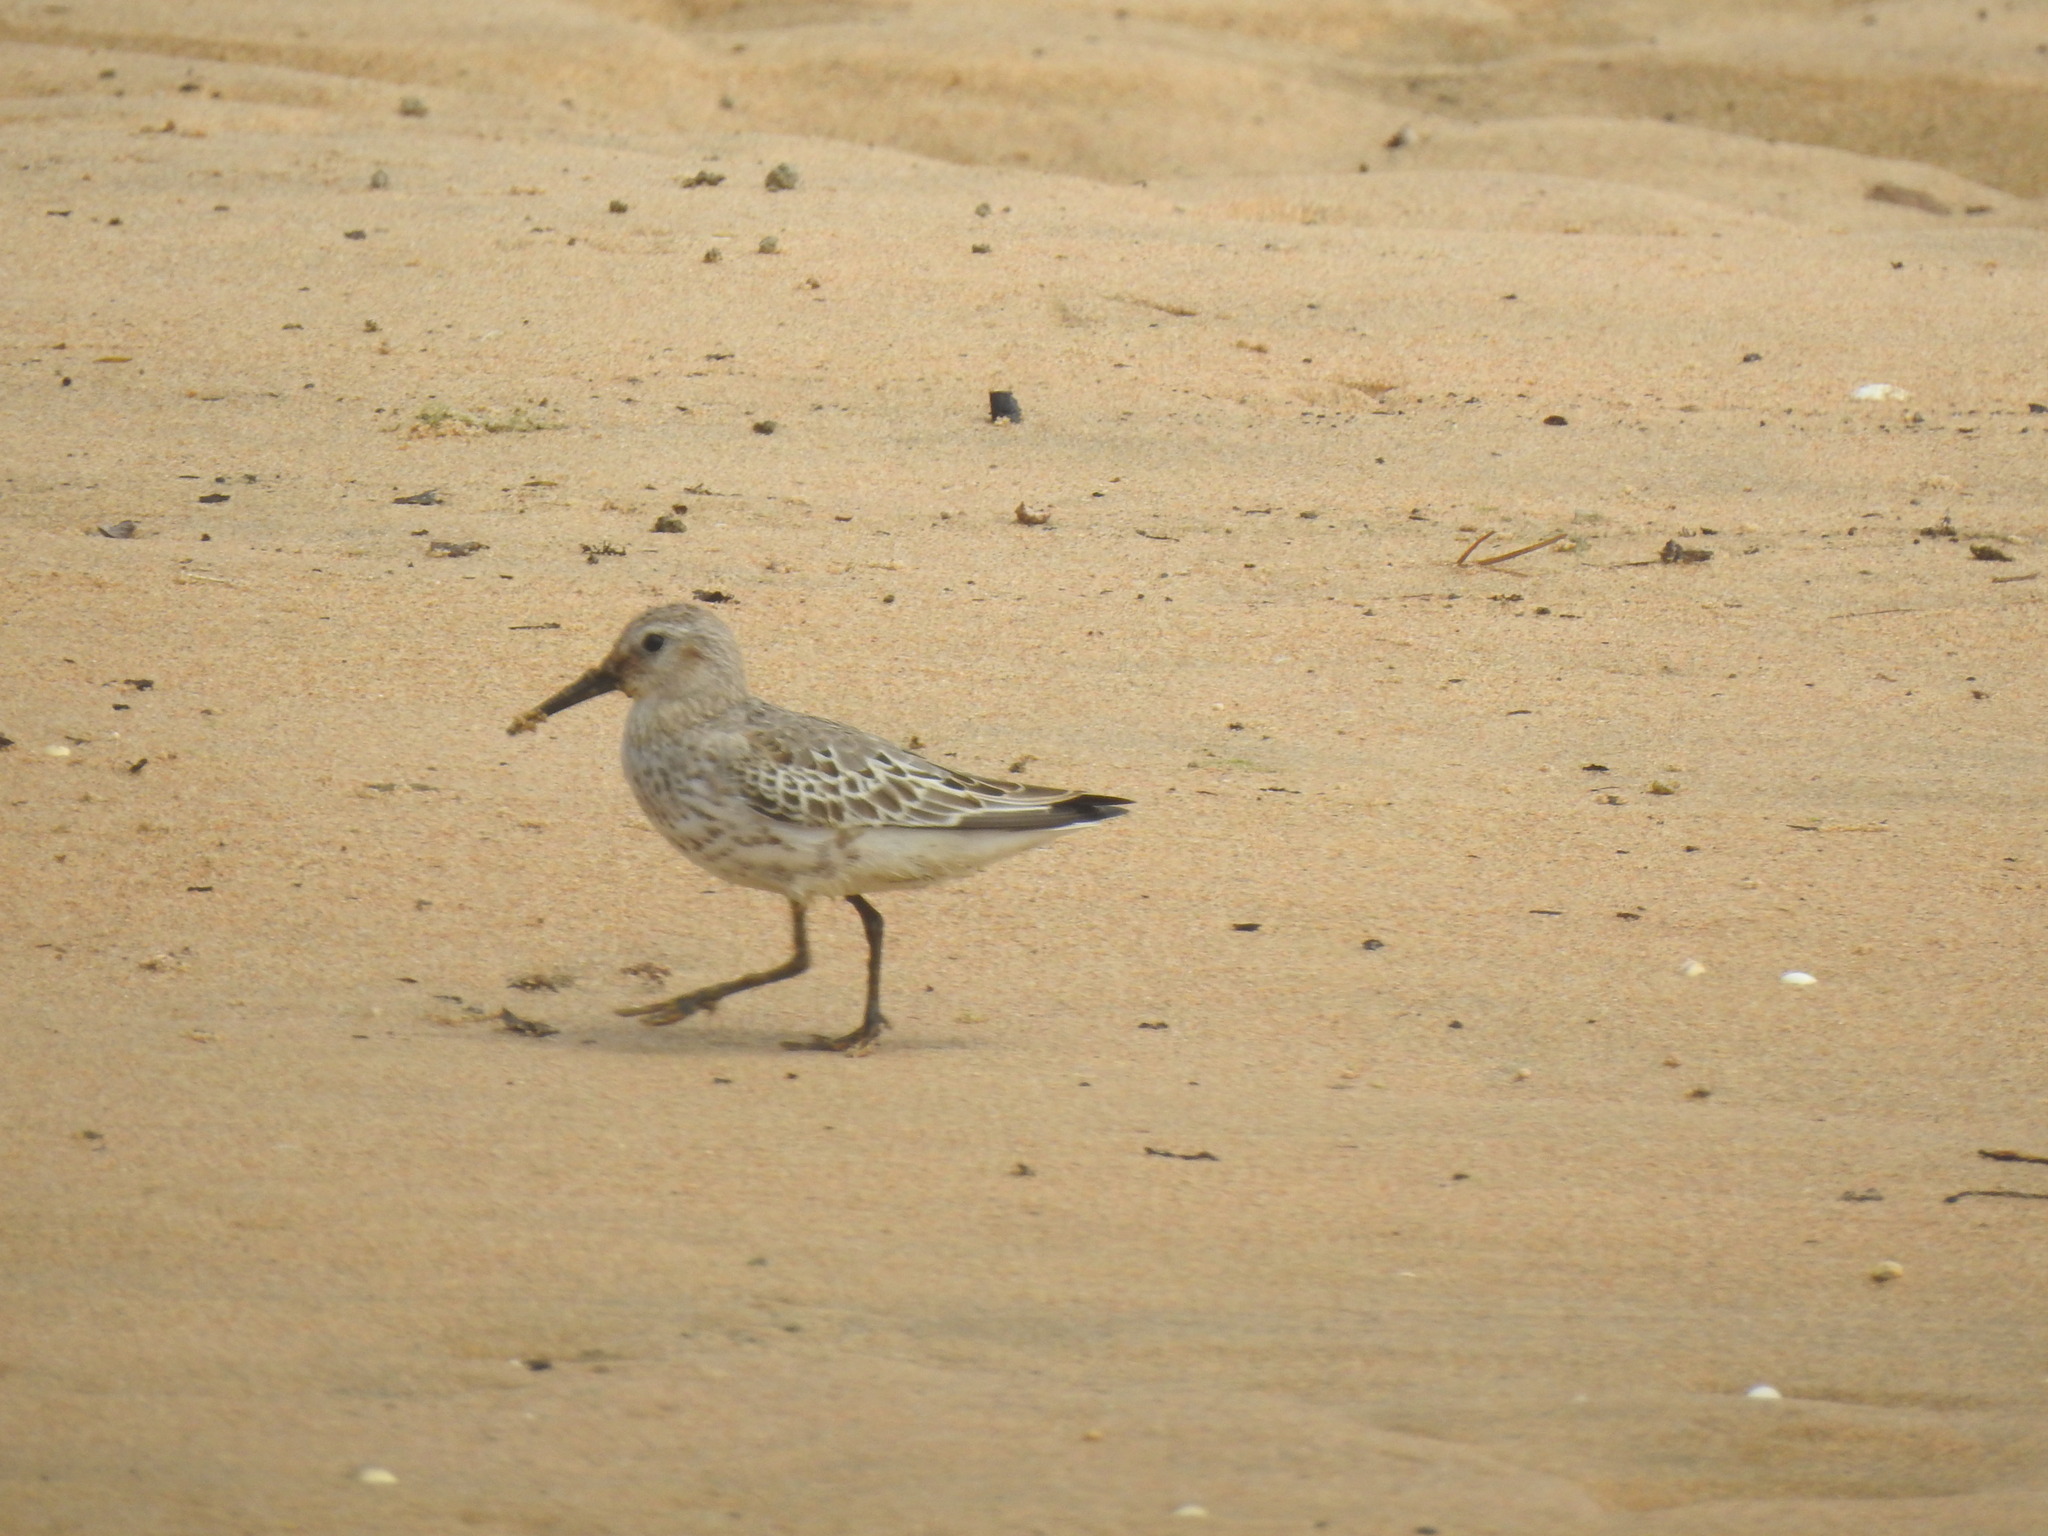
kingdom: Animalia
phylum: Chordata
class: Aves
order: Charadriiformes
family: Scolopacidae
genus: Calidris
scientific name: Calidris alpina
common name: Dunlin
